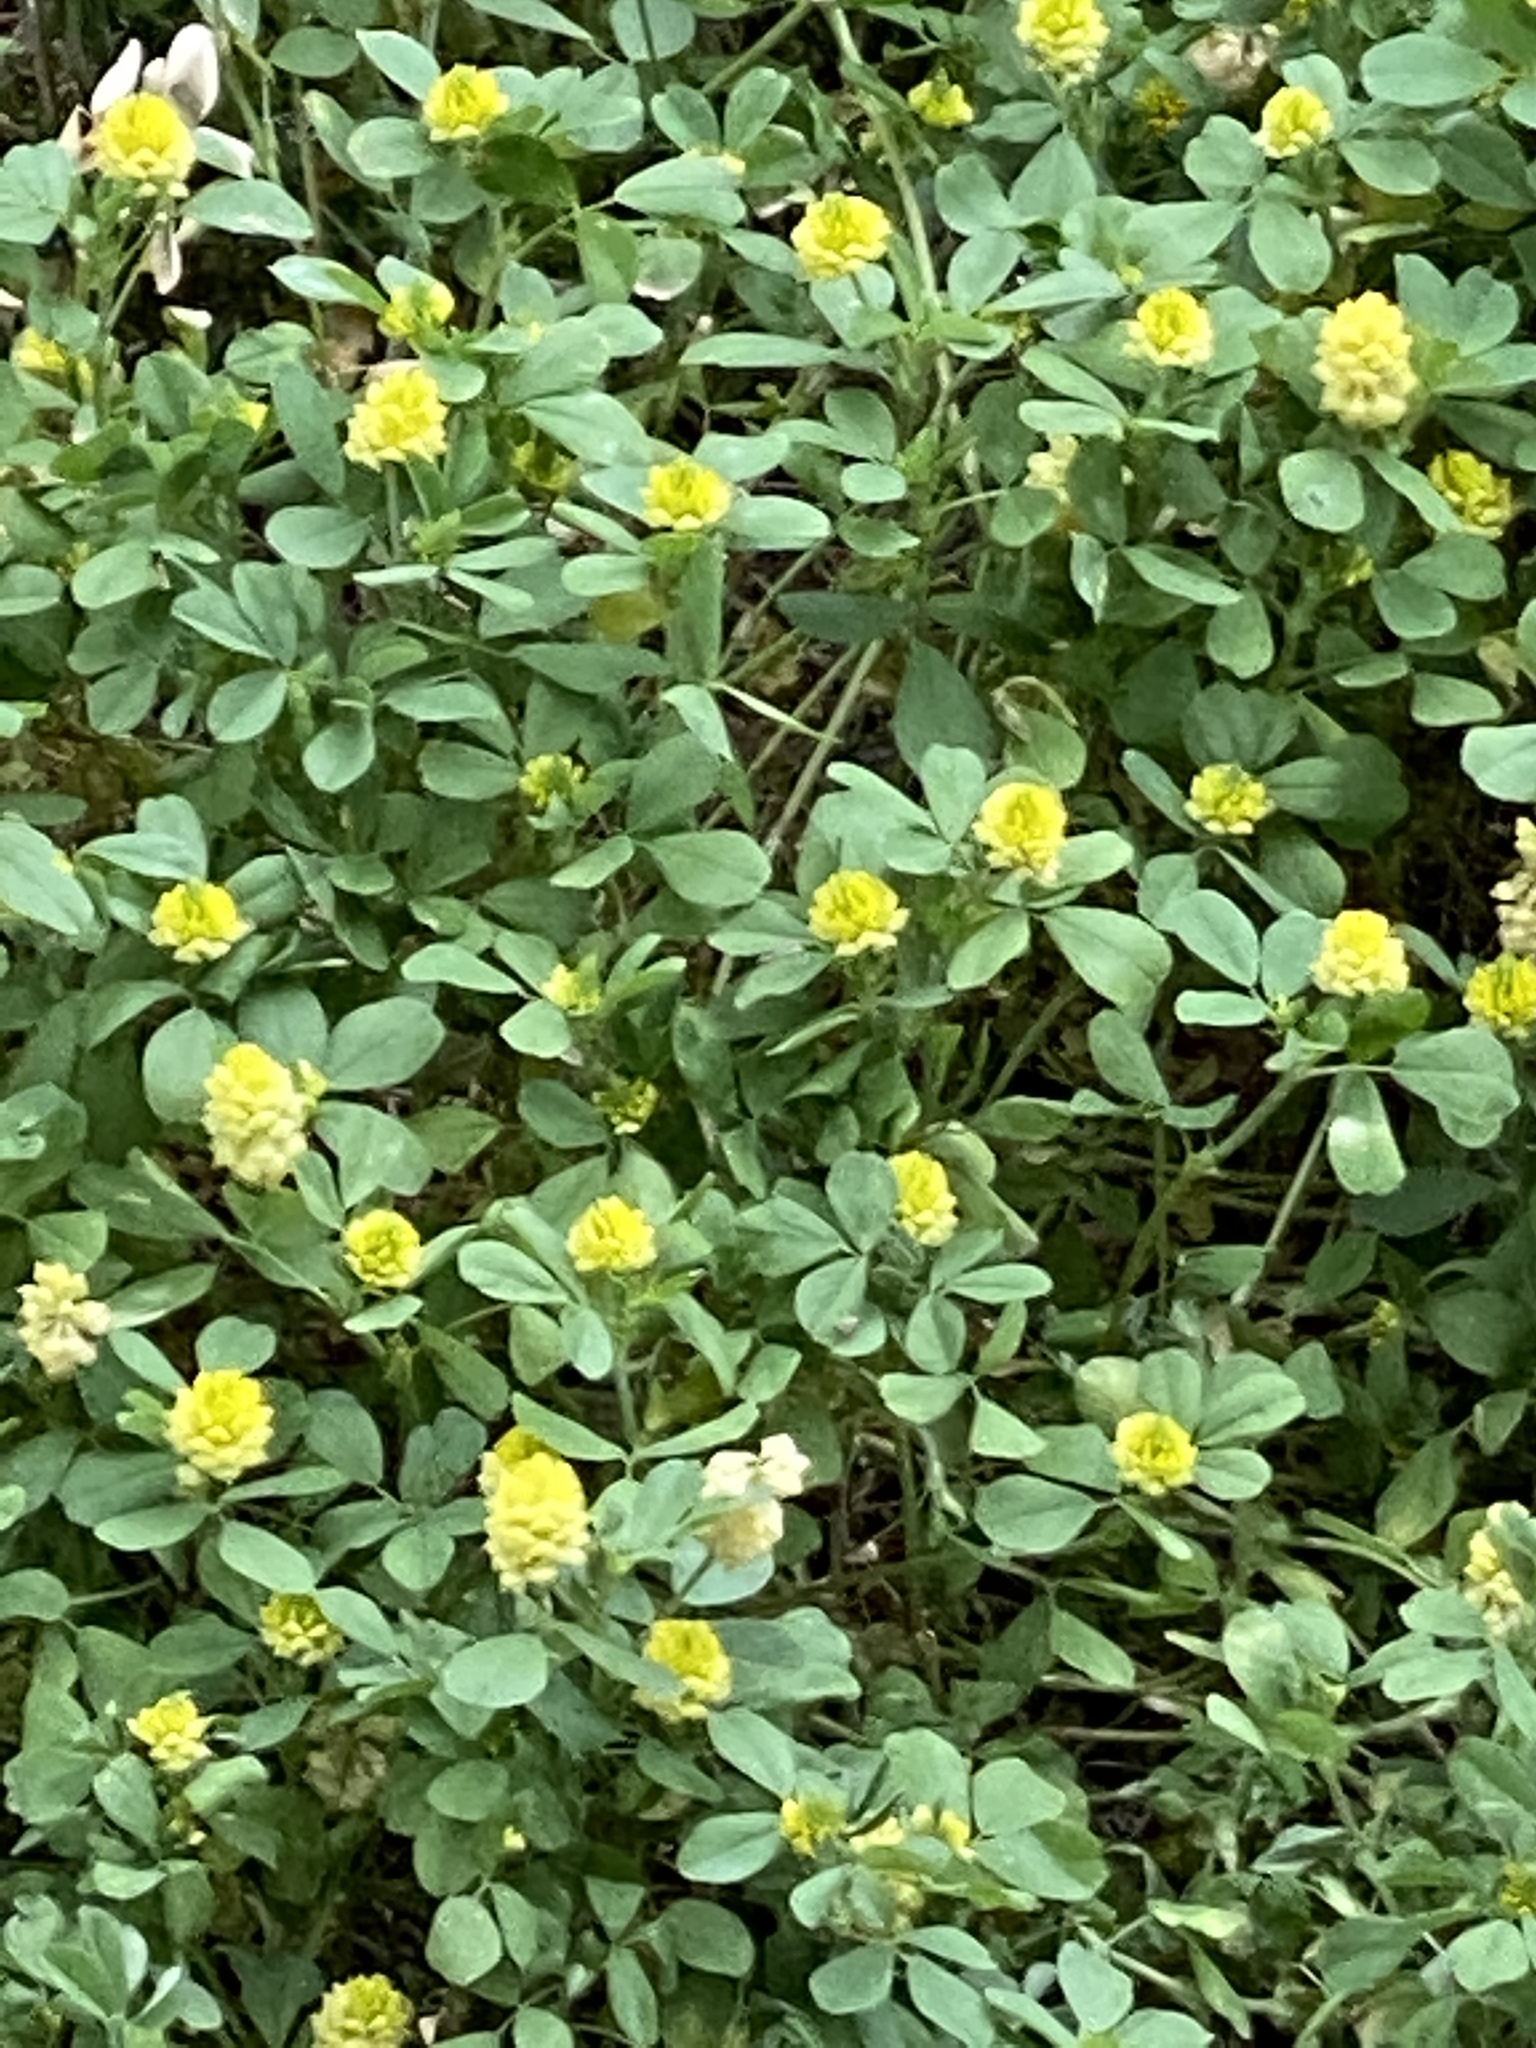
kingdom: Plantae
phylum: Tracheophyta
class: Magnoliopsida
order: Fabales
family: Fabaceae
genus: Trifolium
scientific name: Trifolium campestre
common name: Field clover
